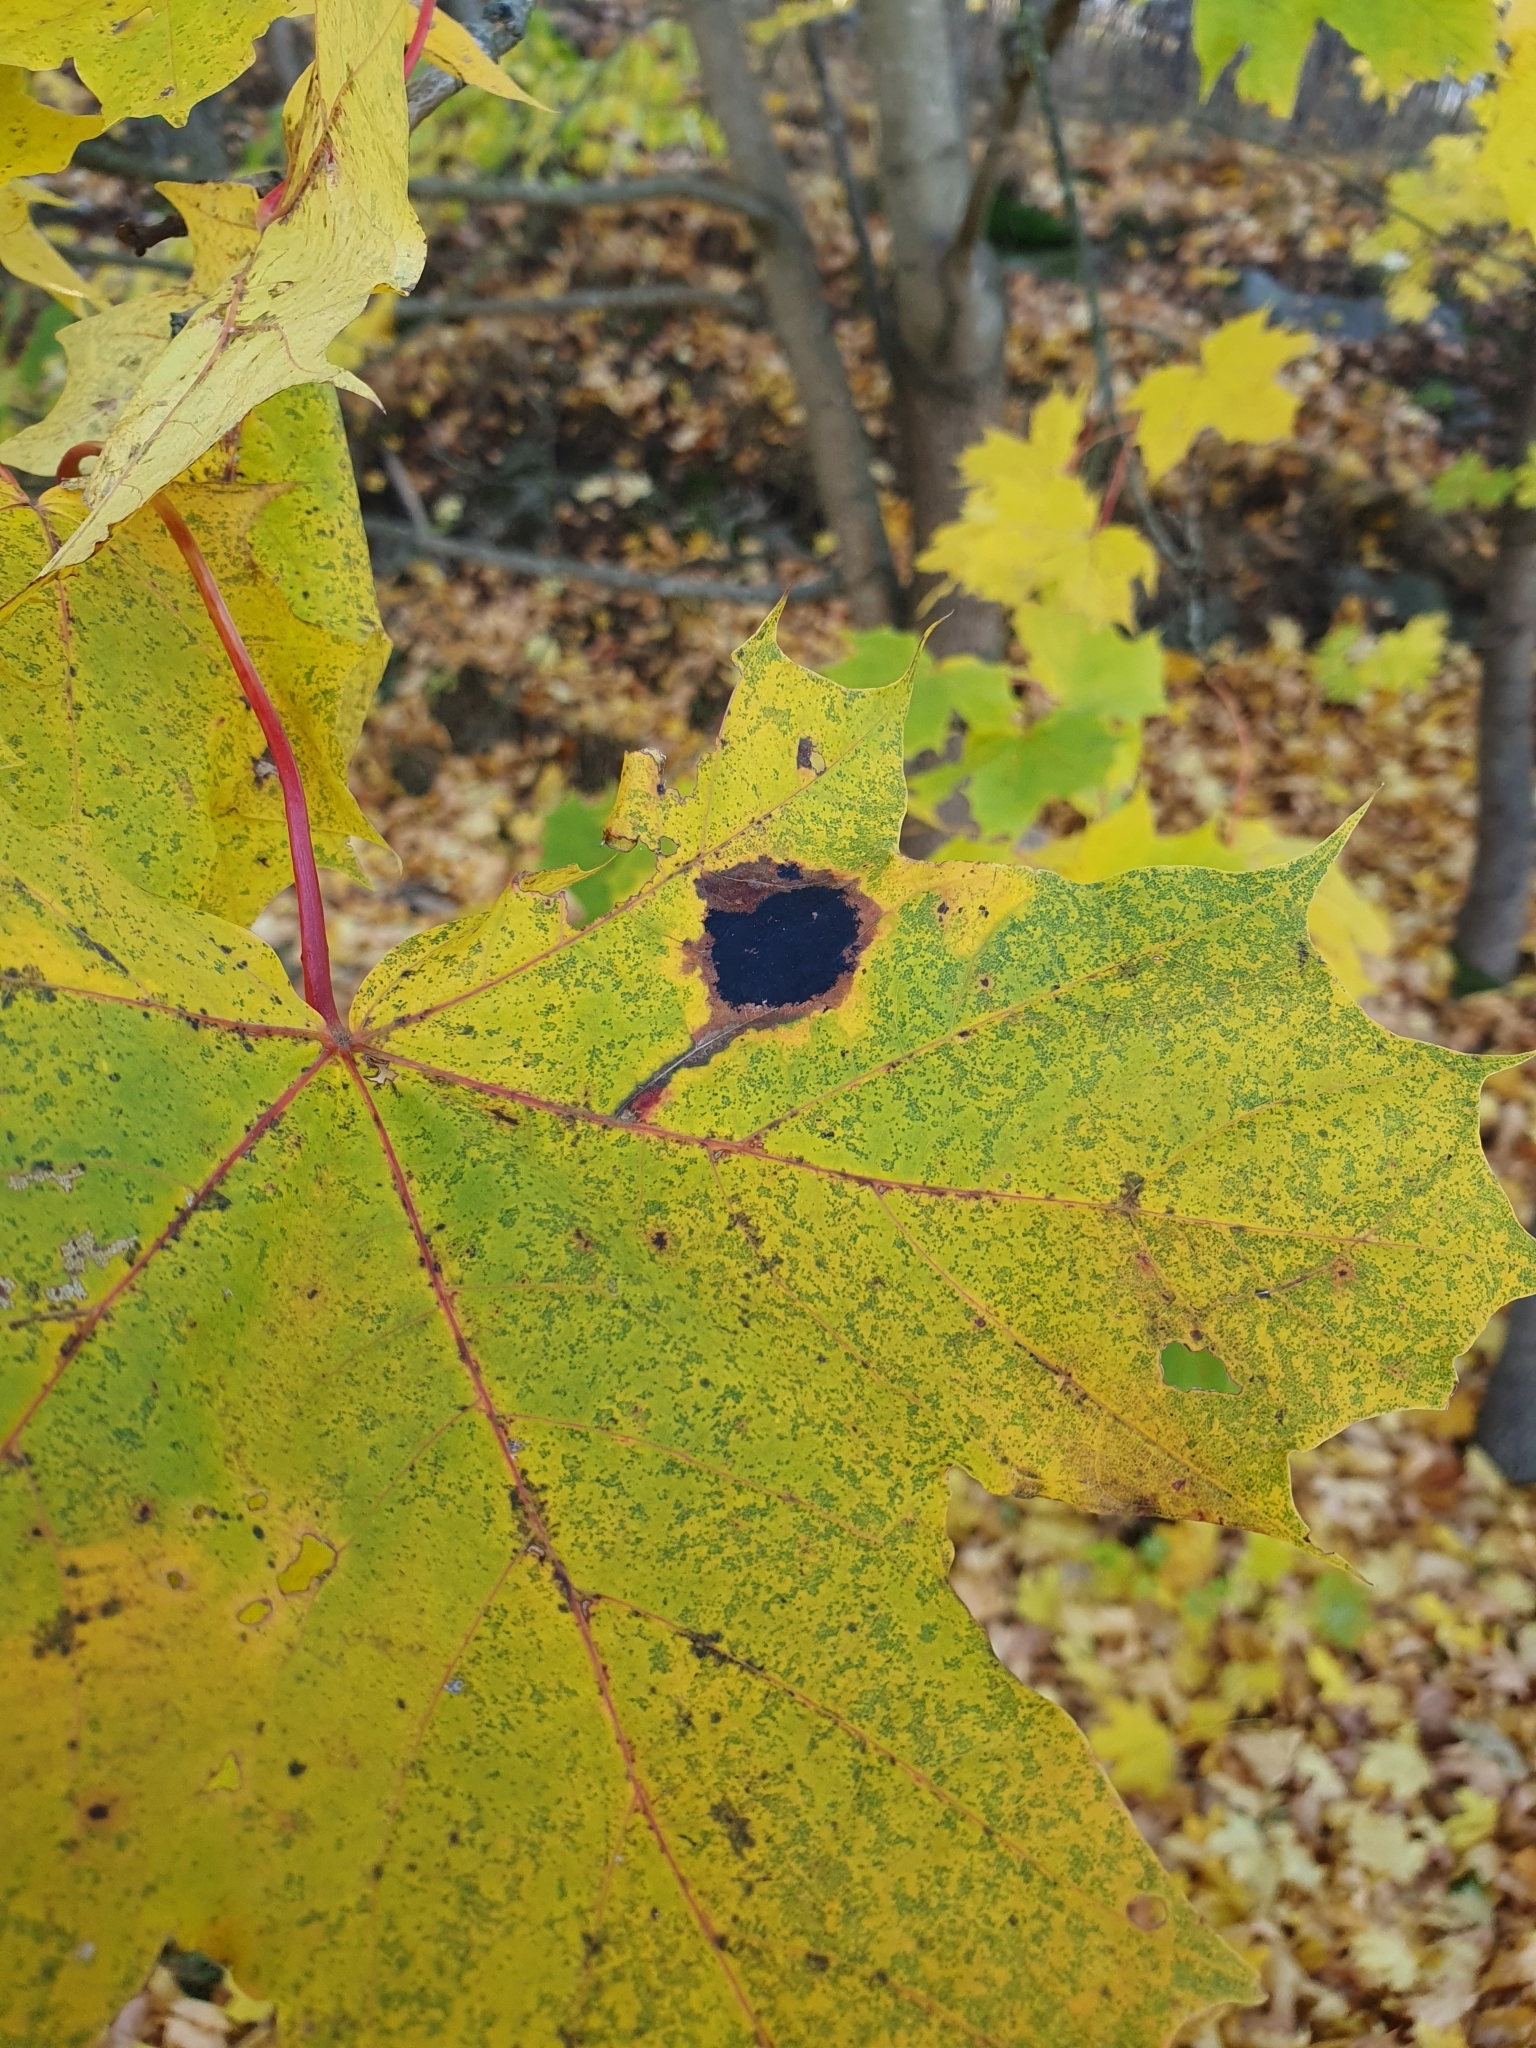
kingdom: Fungi
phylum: Ascomycota
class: Leotiomycetes
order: Rhytismatales
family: Rhytismataceae
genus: Rhytisma
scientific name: Rhytisma acerinum
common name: European tar spot
